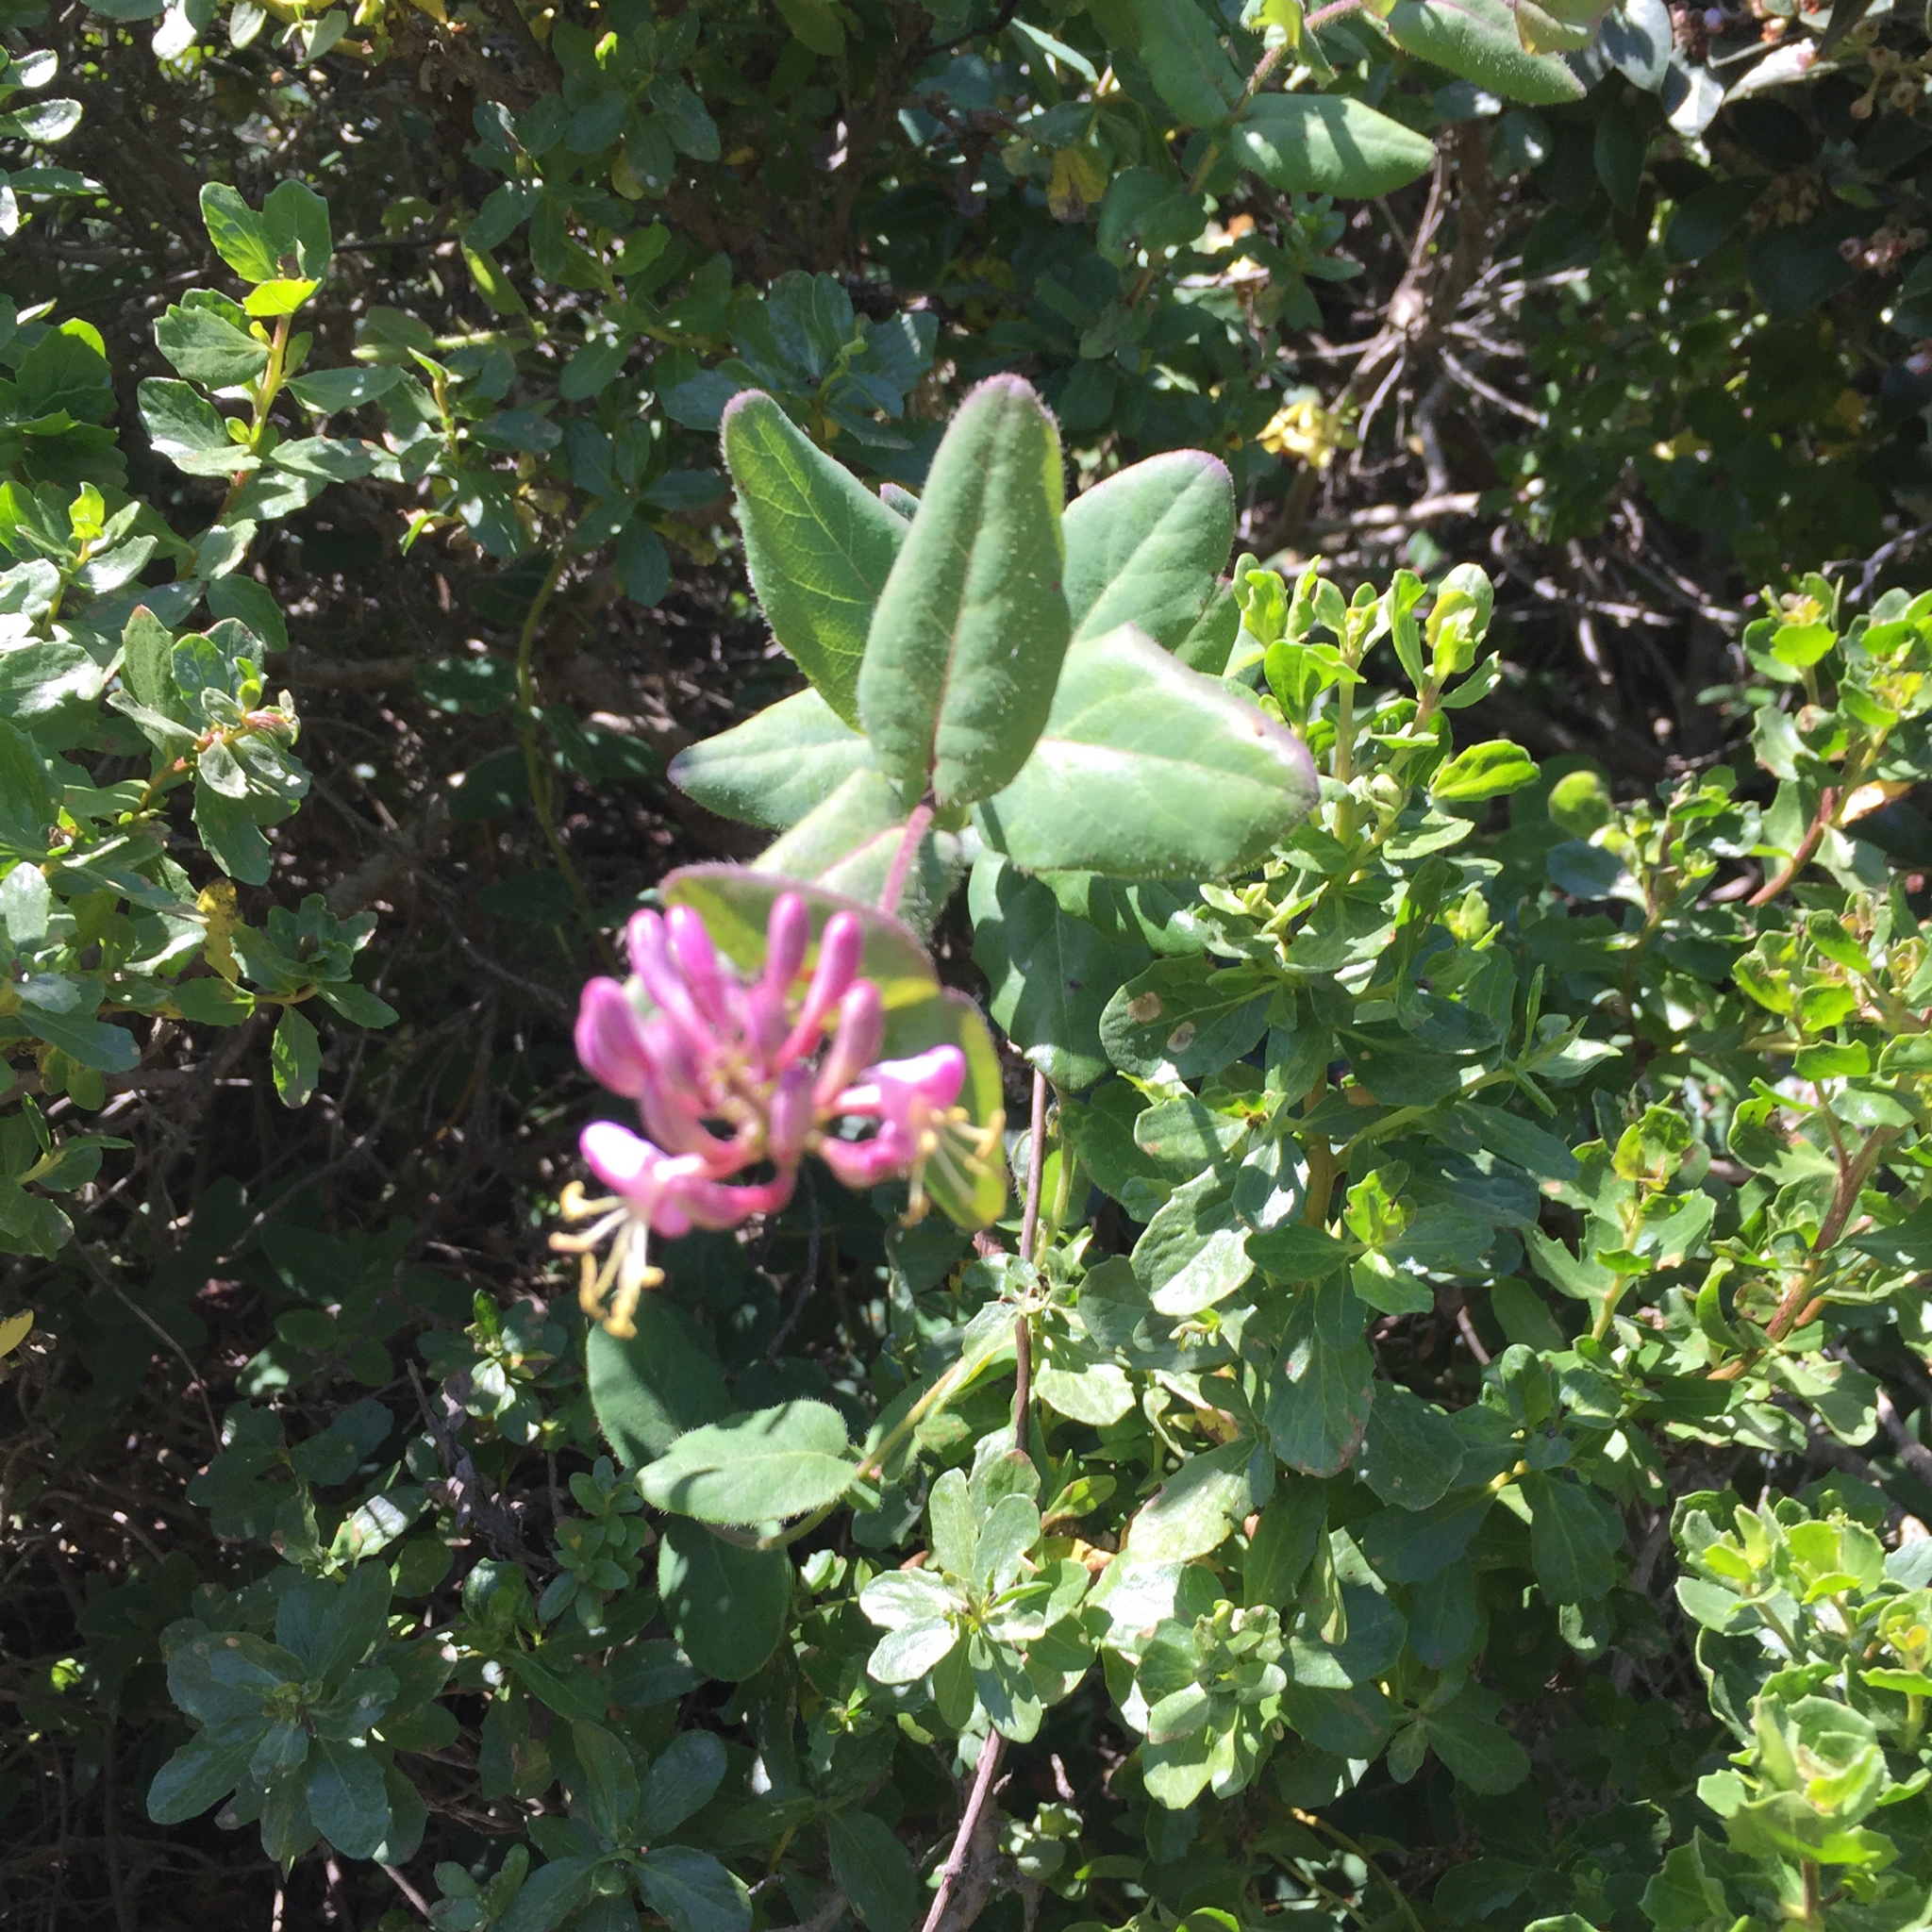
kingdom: Plantae
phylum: Tracheophyta
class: Magnoliopsida
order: Dipsacales
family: Caprifoliaceae
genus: Lonicera
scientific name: Lonicera hispidula
